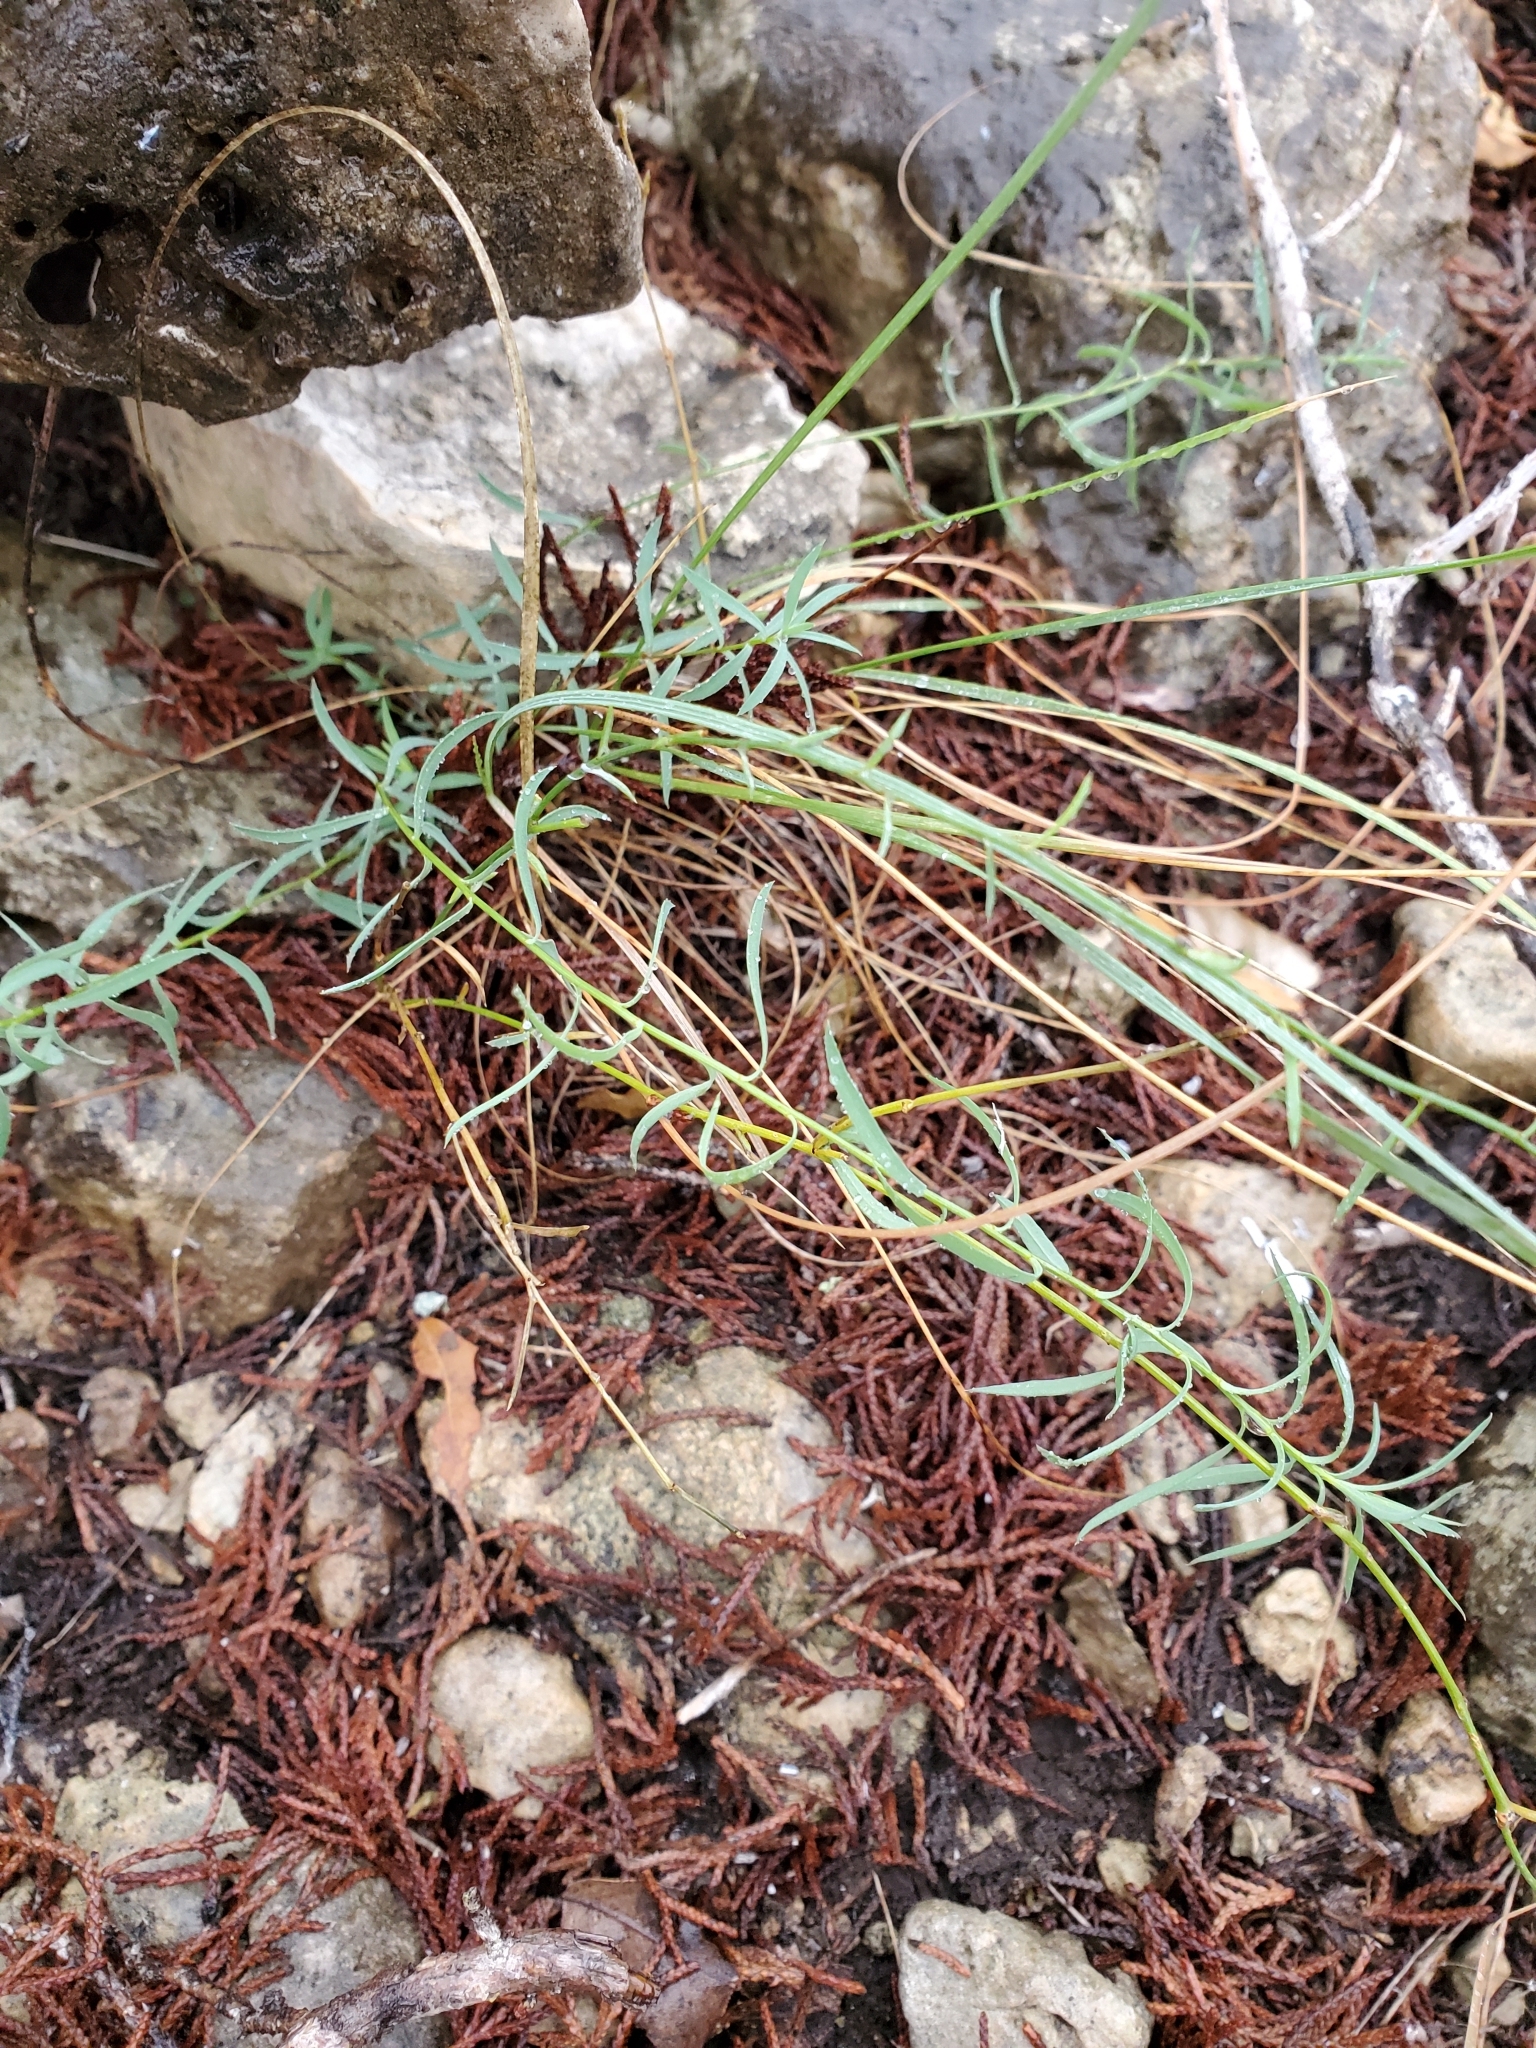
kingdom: Plantae
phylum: Tracheophyta
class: Magnoliopsida
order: Sapindales
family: Rutaceae
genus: Thamnosma
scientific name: Thamnosma texana
